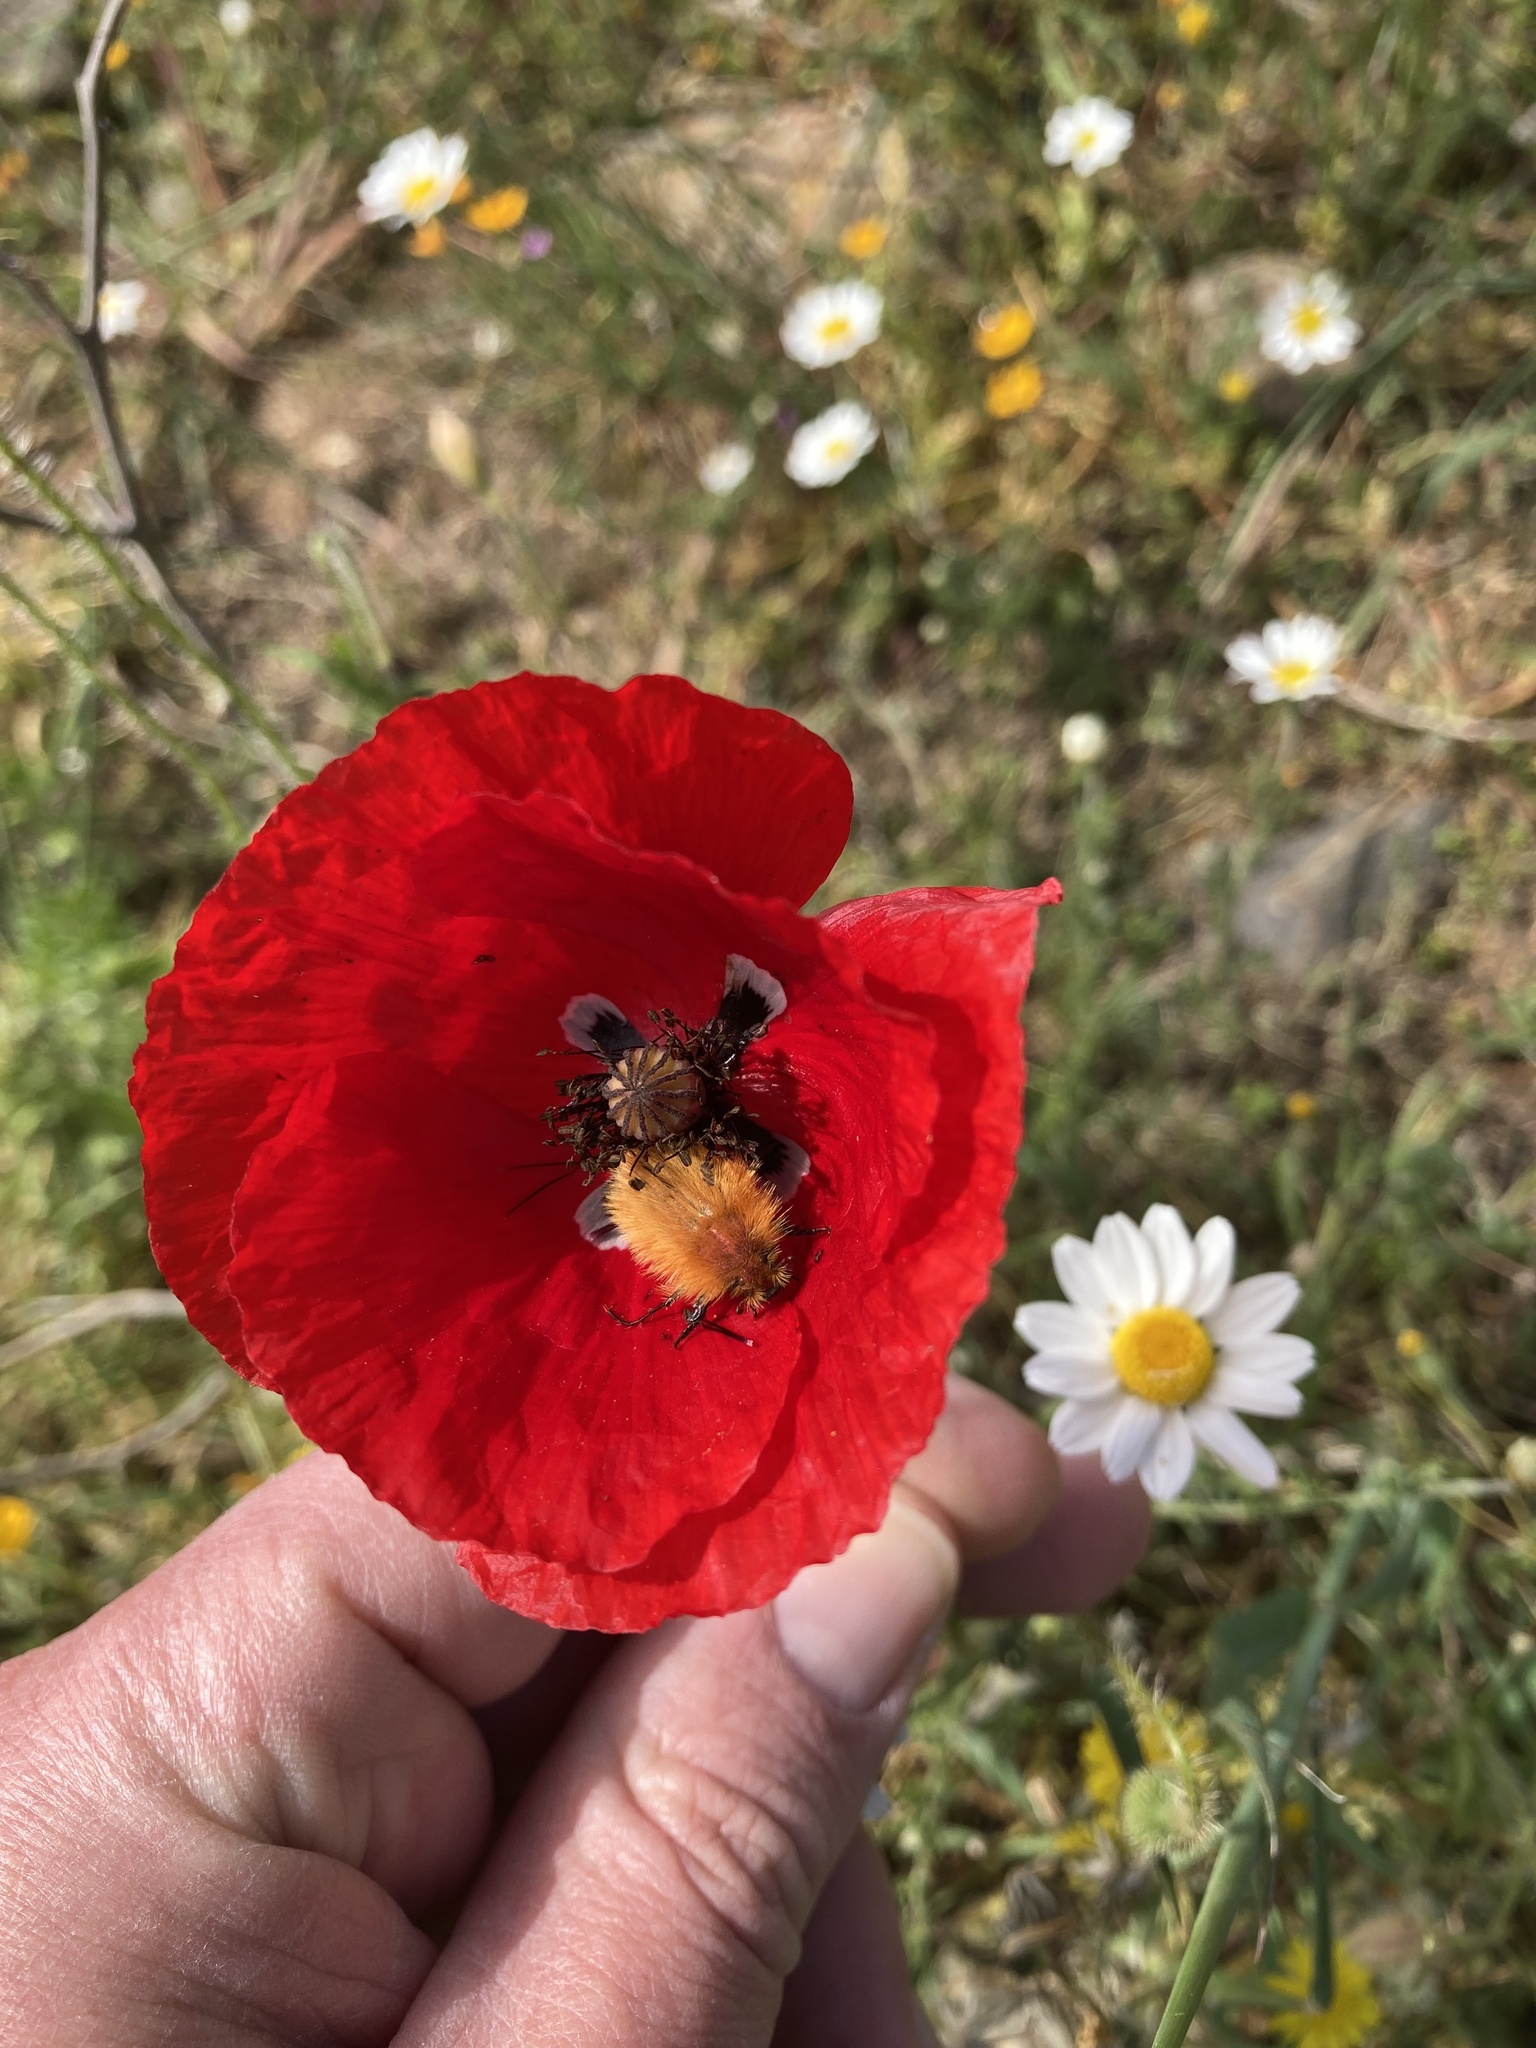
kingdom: Animalia
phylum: Arthropoda
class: Insecta
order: Coleoptera
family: Glaphyridae
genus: Pygopleurus
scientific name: Pygopleurus vulpes
